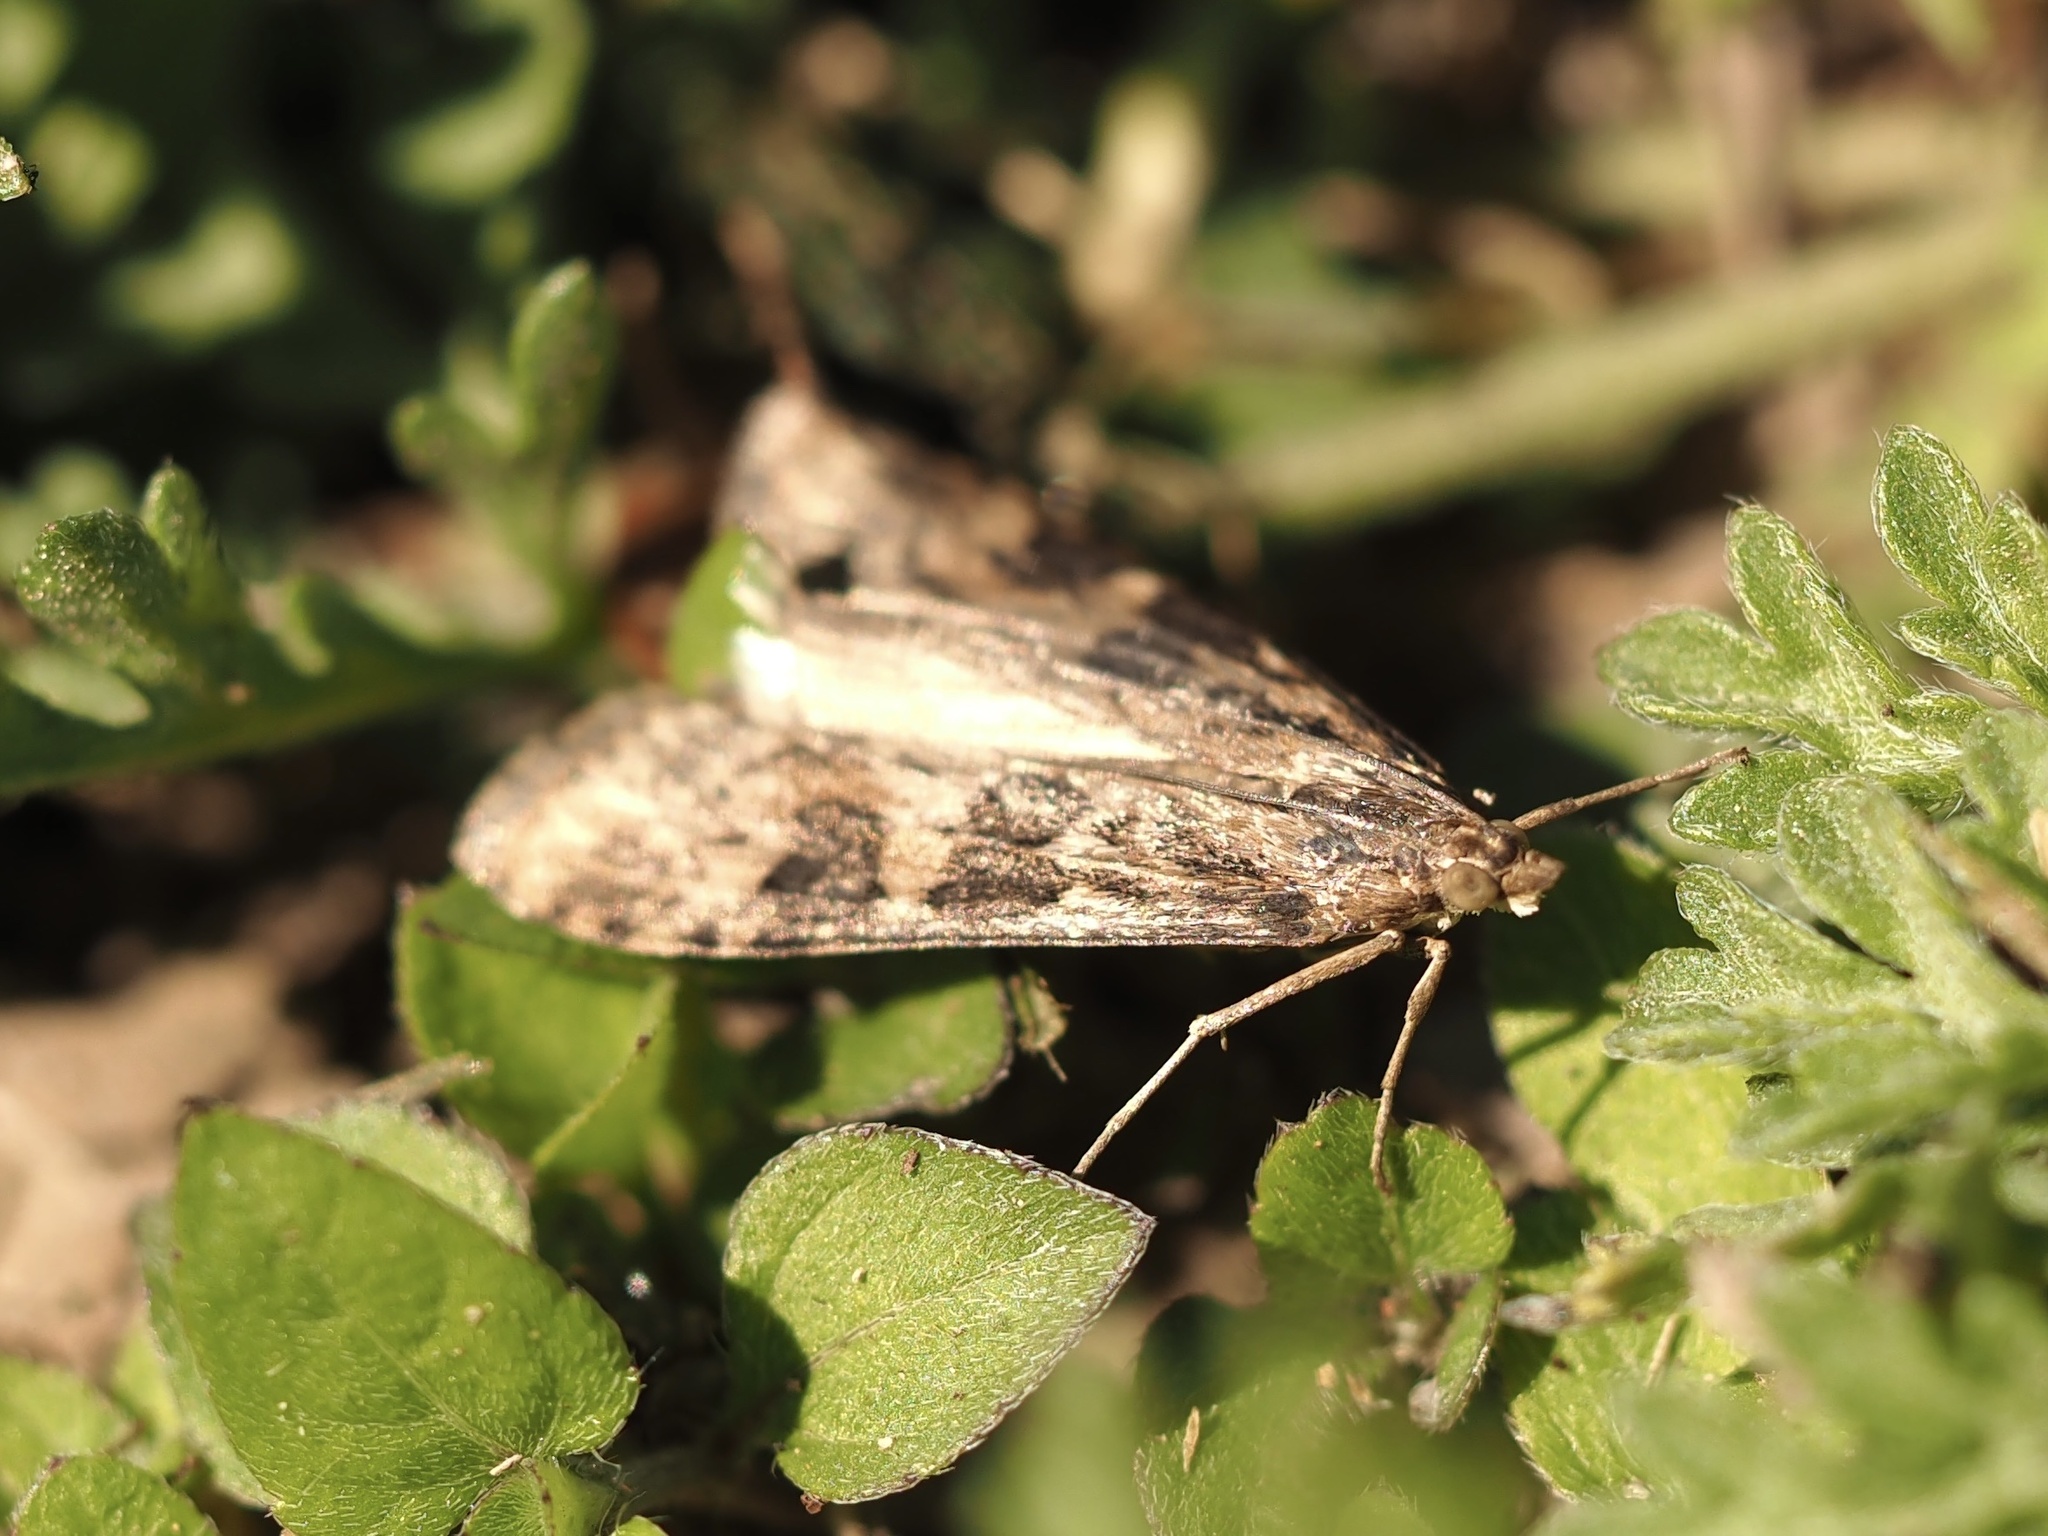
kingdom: Animalia
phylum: Arthropoda
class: Insecta
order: Lepidoptera
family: Crambidae
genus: Nomophila
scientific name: Nomophila nearctica
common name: American rush veneer
